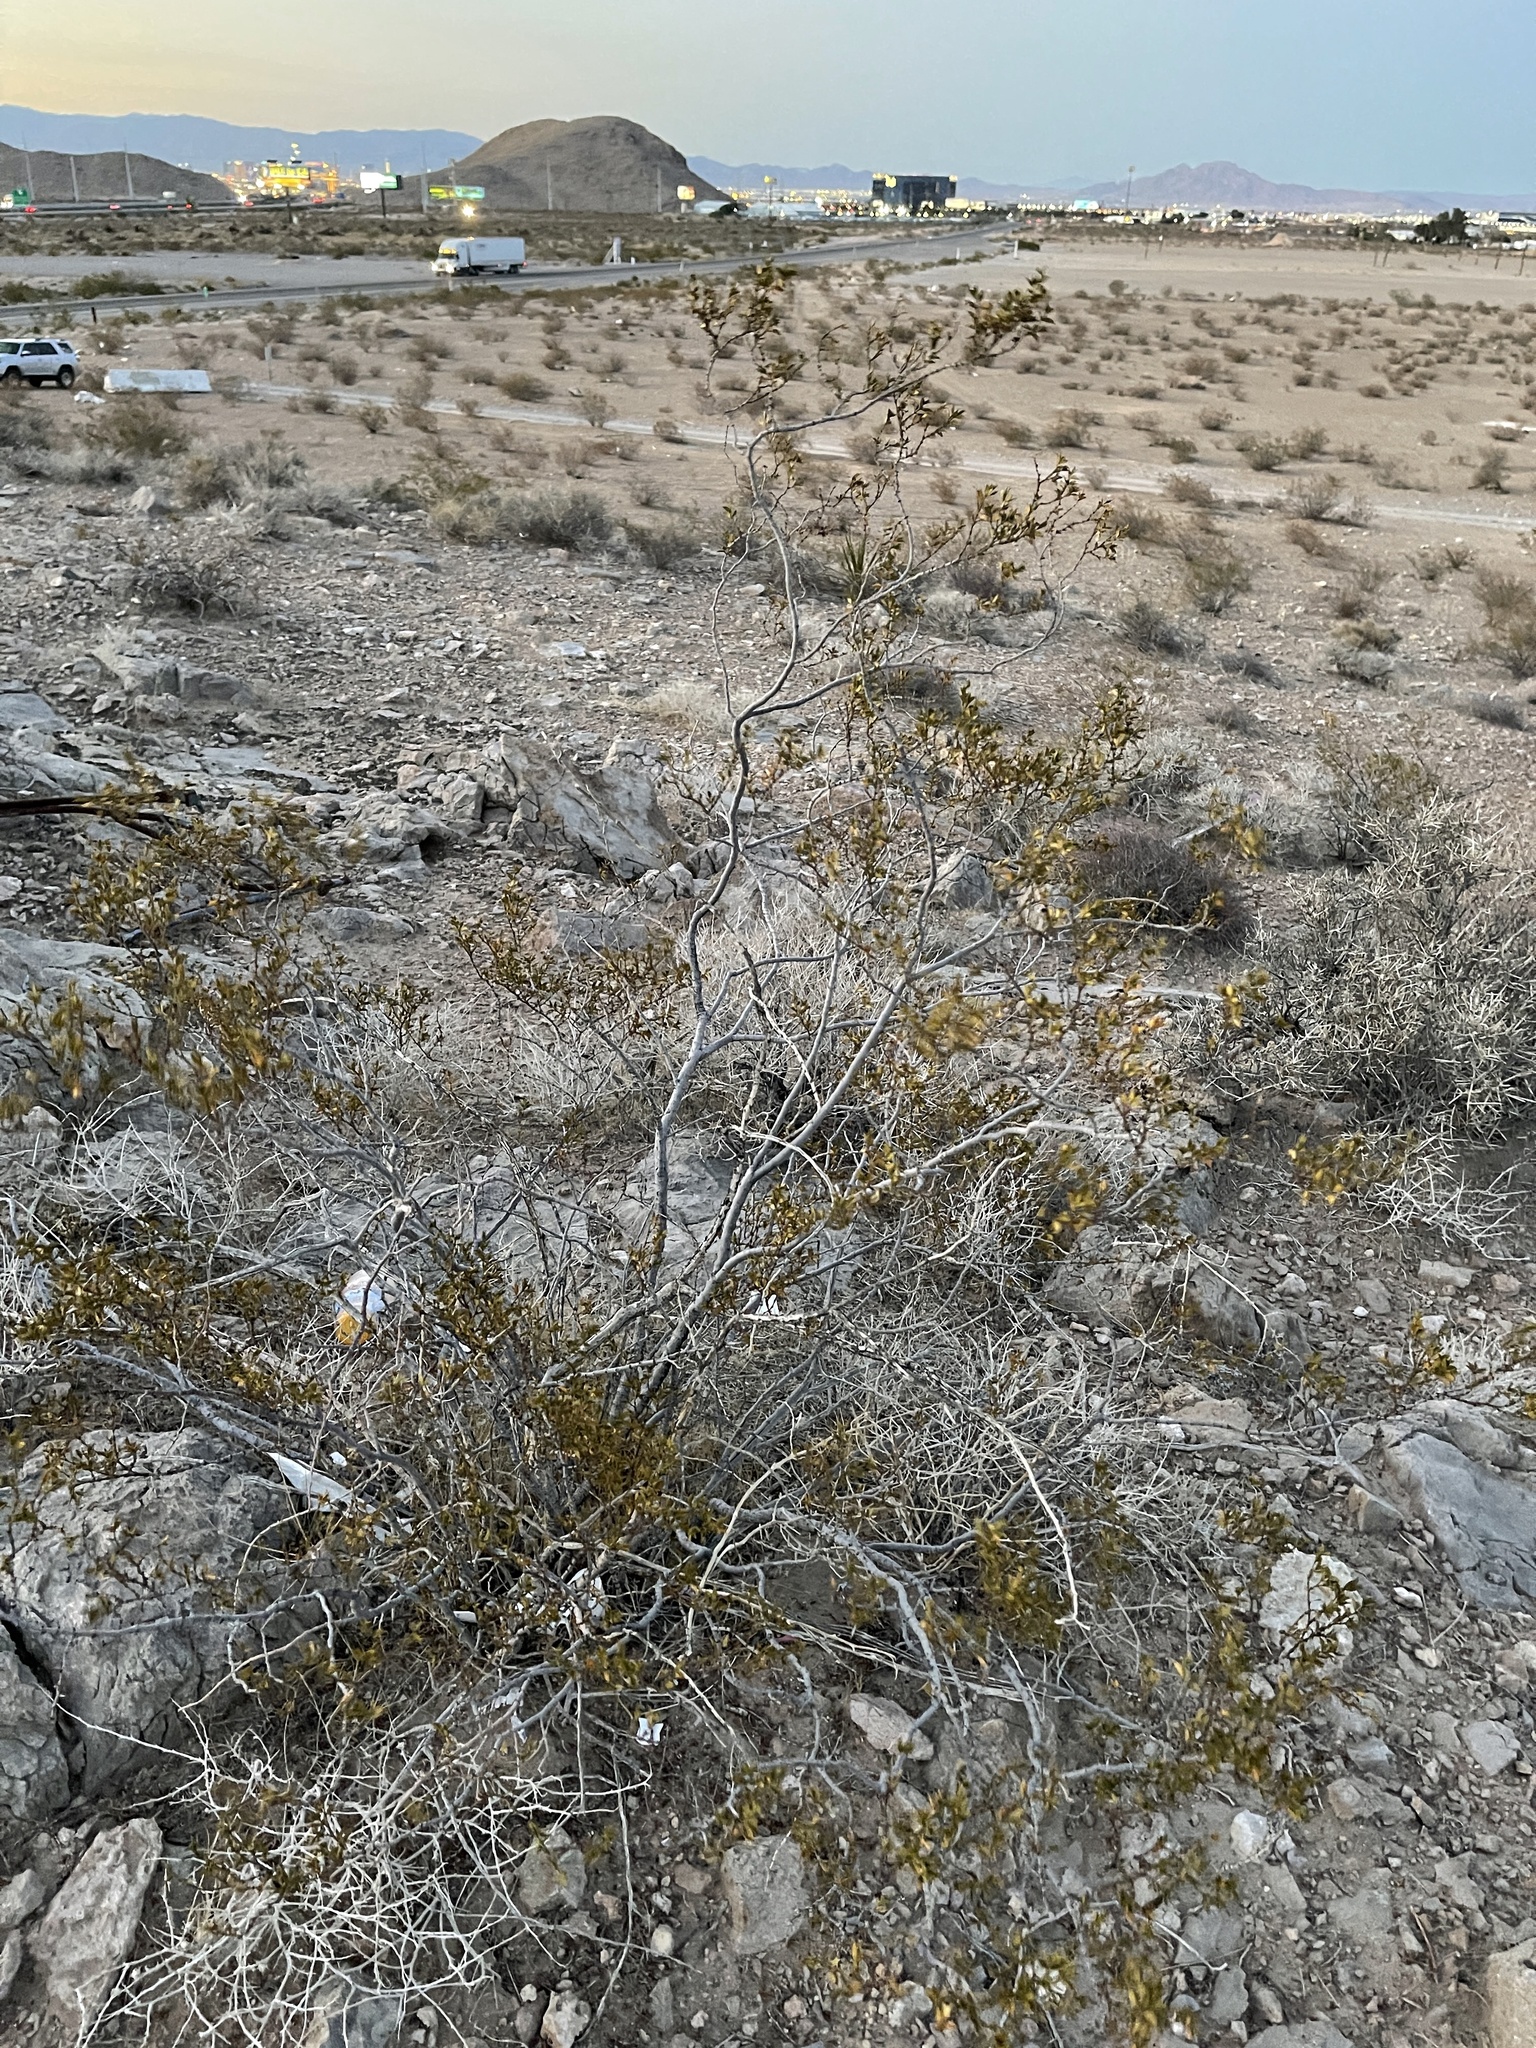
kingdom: Plantae
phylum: Tracheophyta
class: Magnoliopsida
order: Zygophyllales
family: Zygophyllaceae
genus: Larrea
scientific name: Larrea tridentata
